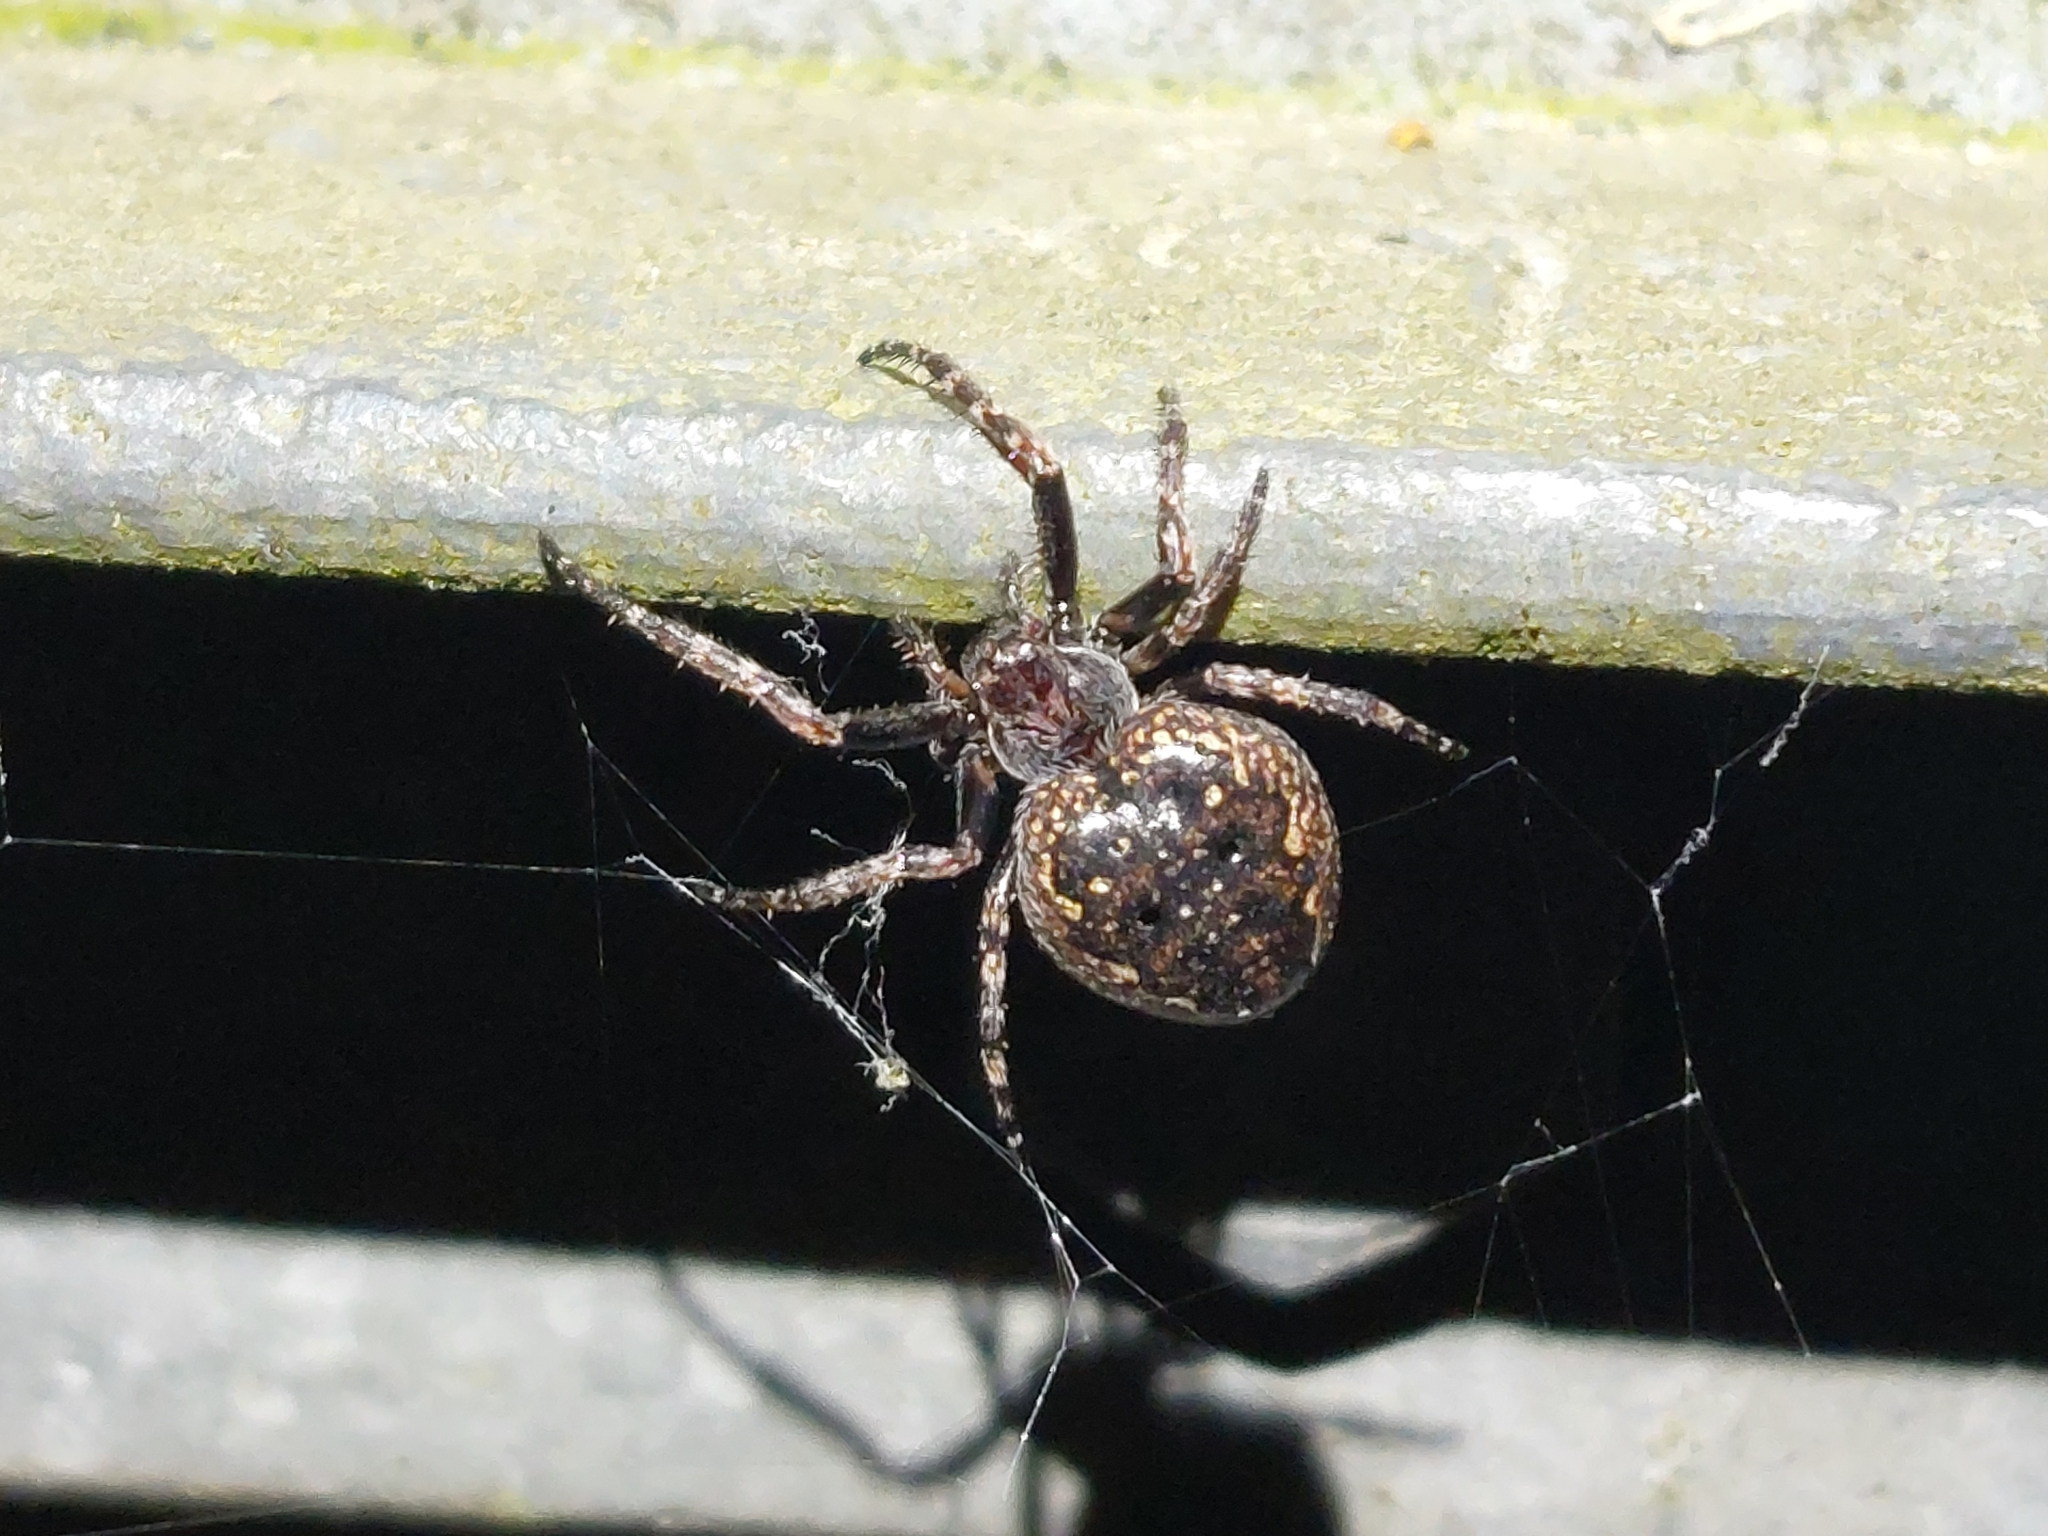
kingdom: Animalia
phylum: Arthropoda
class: Arachnida
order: Araneae
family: Araneidae
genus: Nuctenea
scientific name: Nuctenea umbratica
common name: Toad spider
